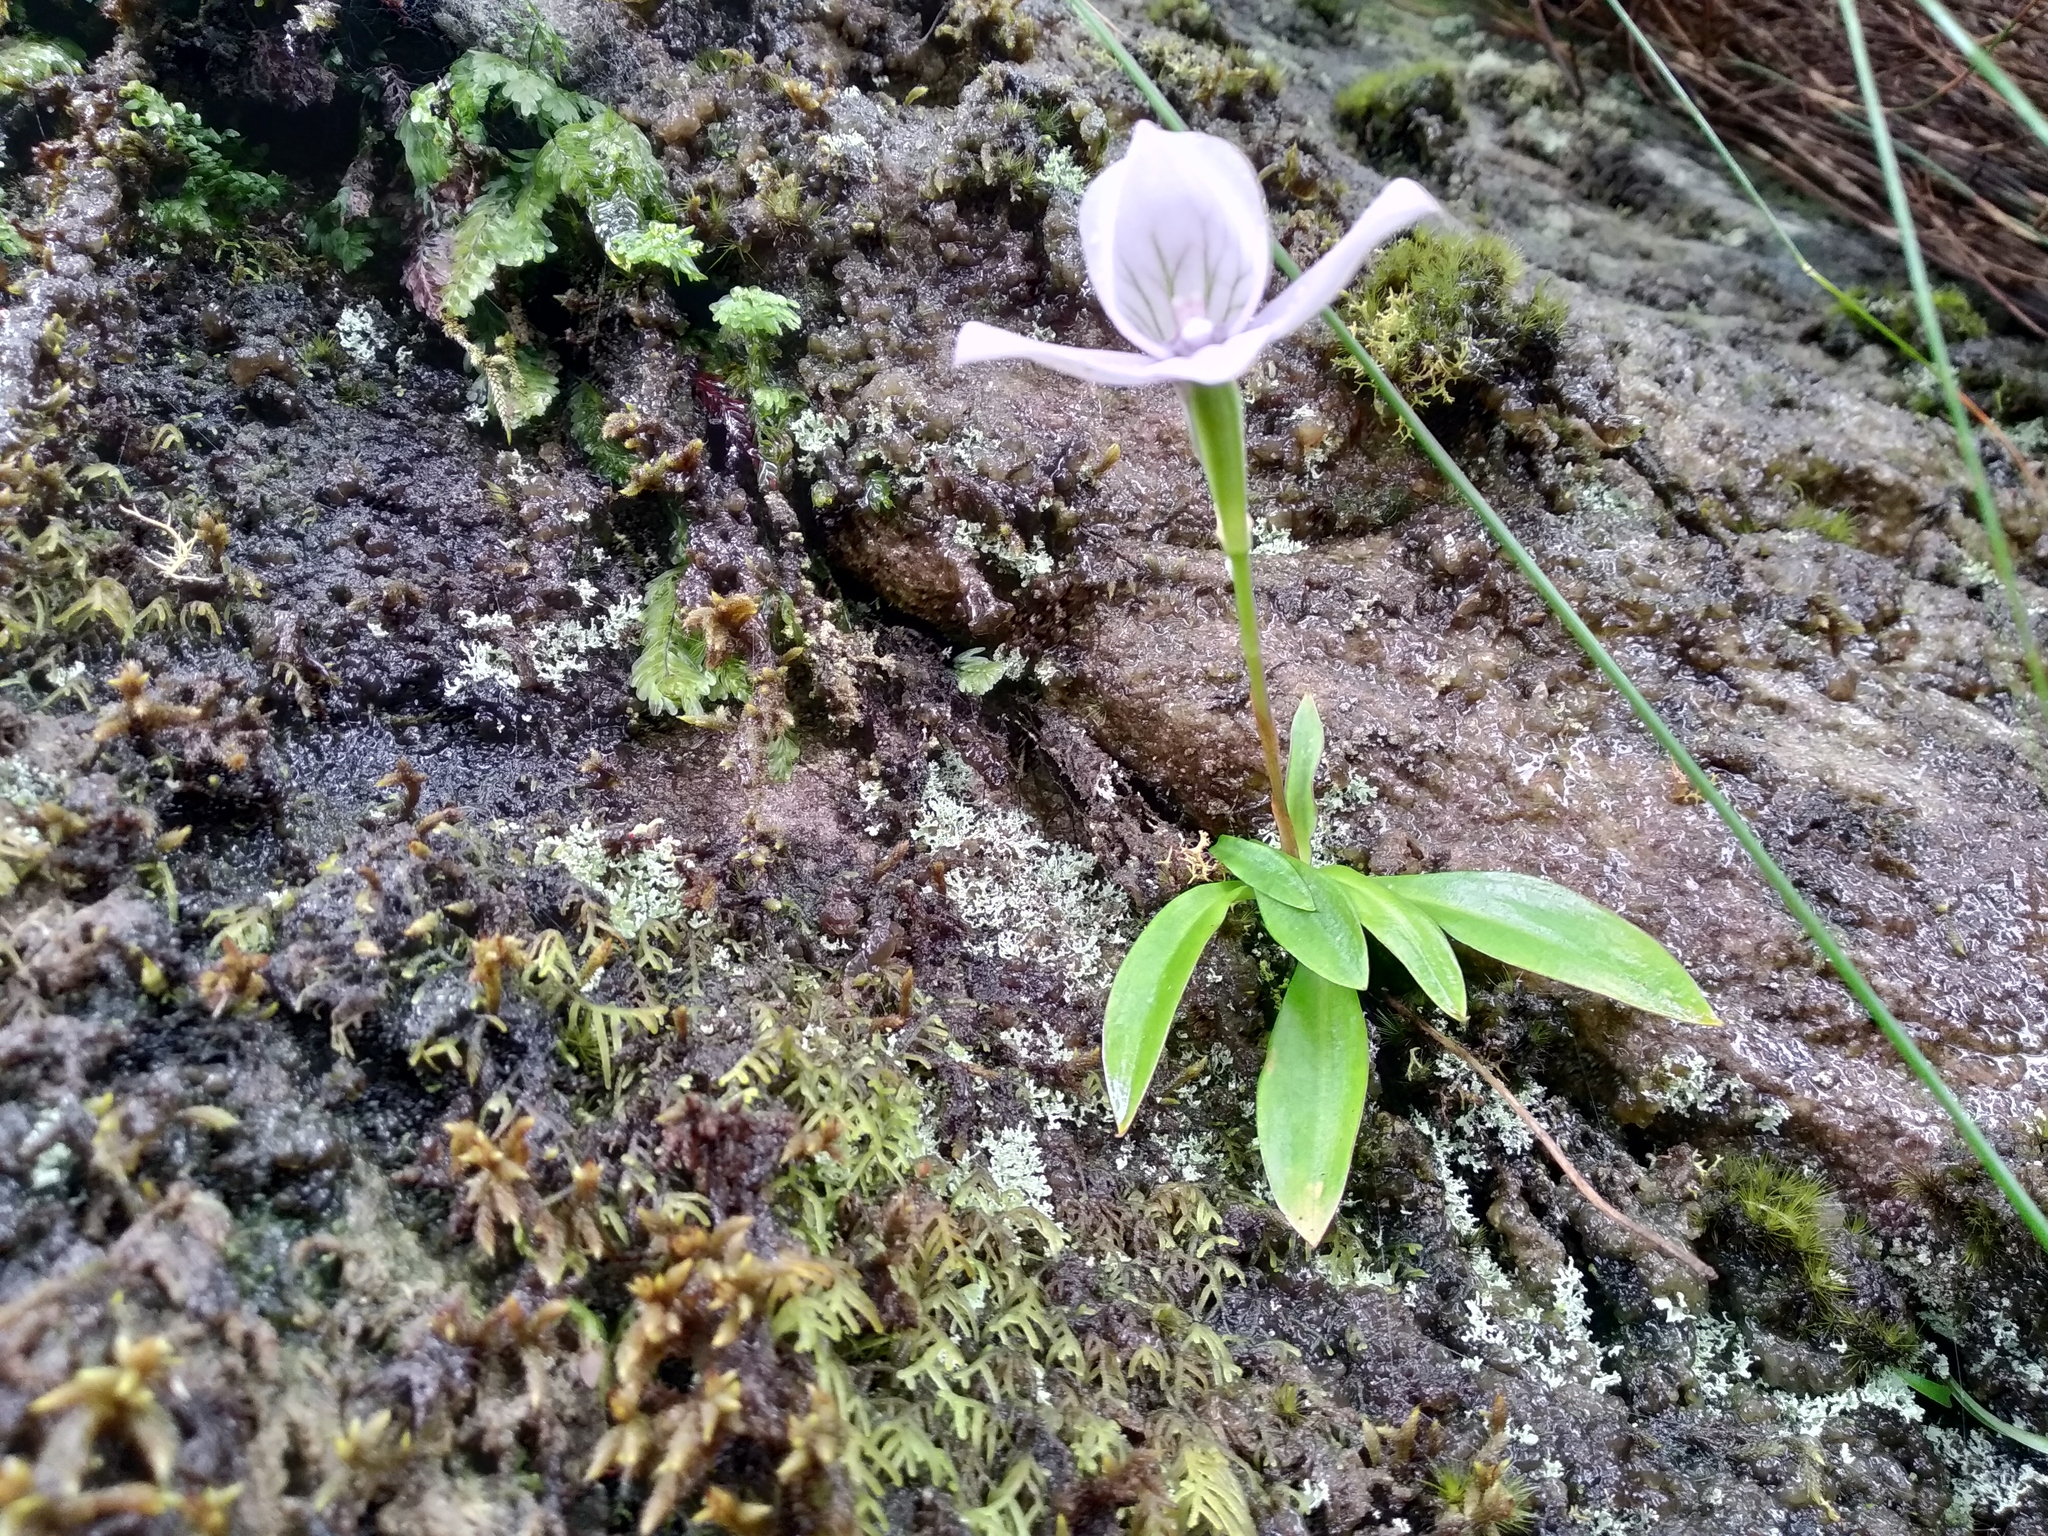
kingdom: Plantae
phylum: Tracheophyta
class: Liliopsida
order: Asparagales
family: Orchidaceae
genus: Disa
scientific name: Disa longicornu
